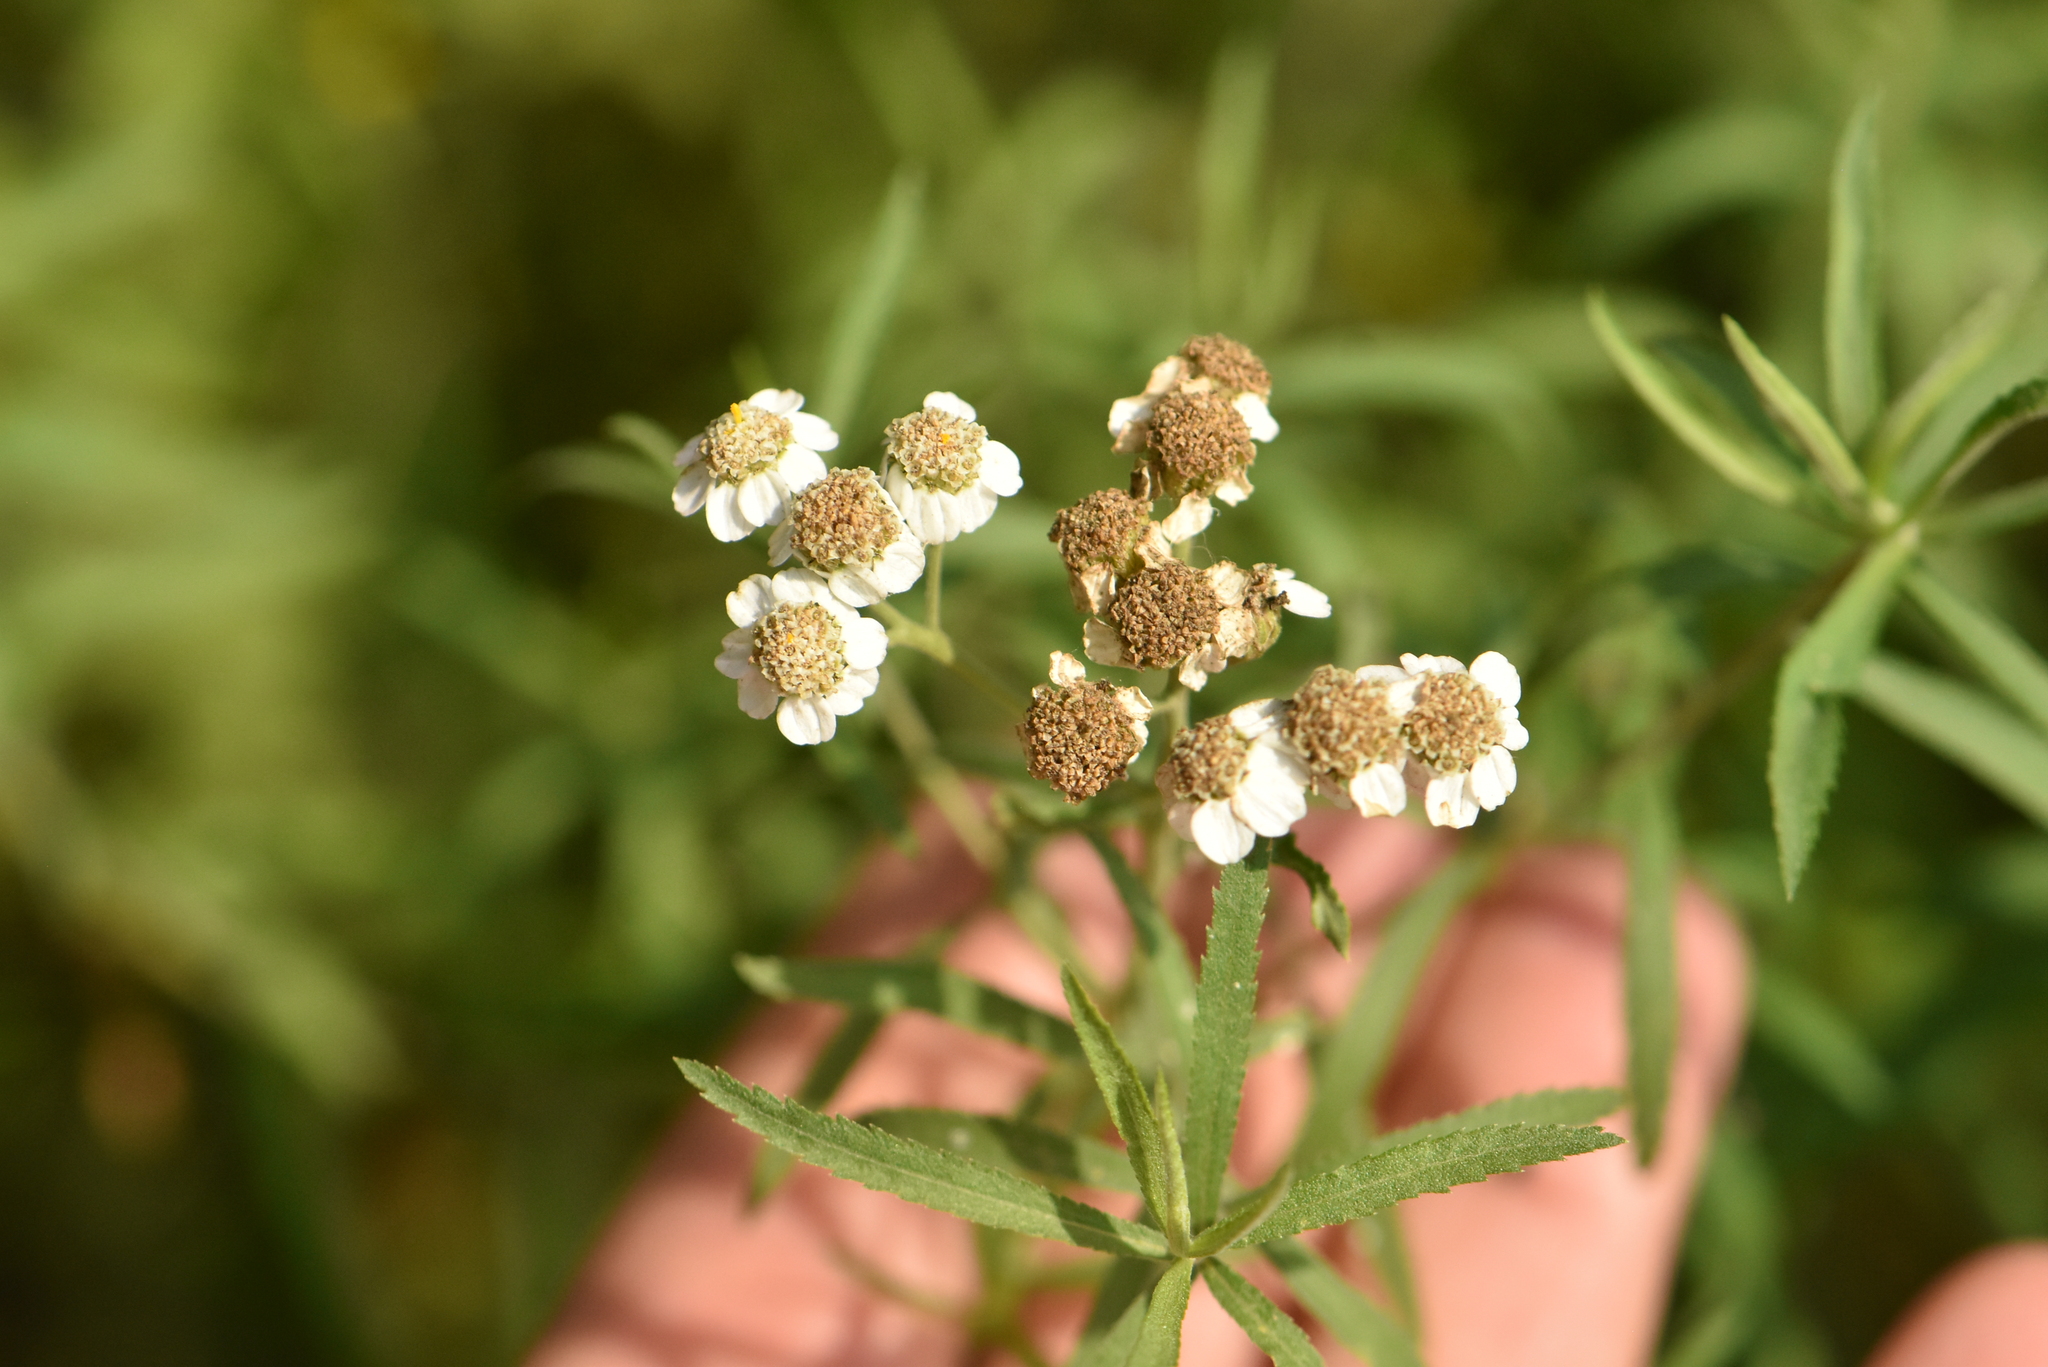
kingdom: Plantae
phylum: Tracheophyta
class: Magnoliopsida
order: Asterales
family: Asteraceae
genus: Achillea
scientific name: Achillea salicifolia
